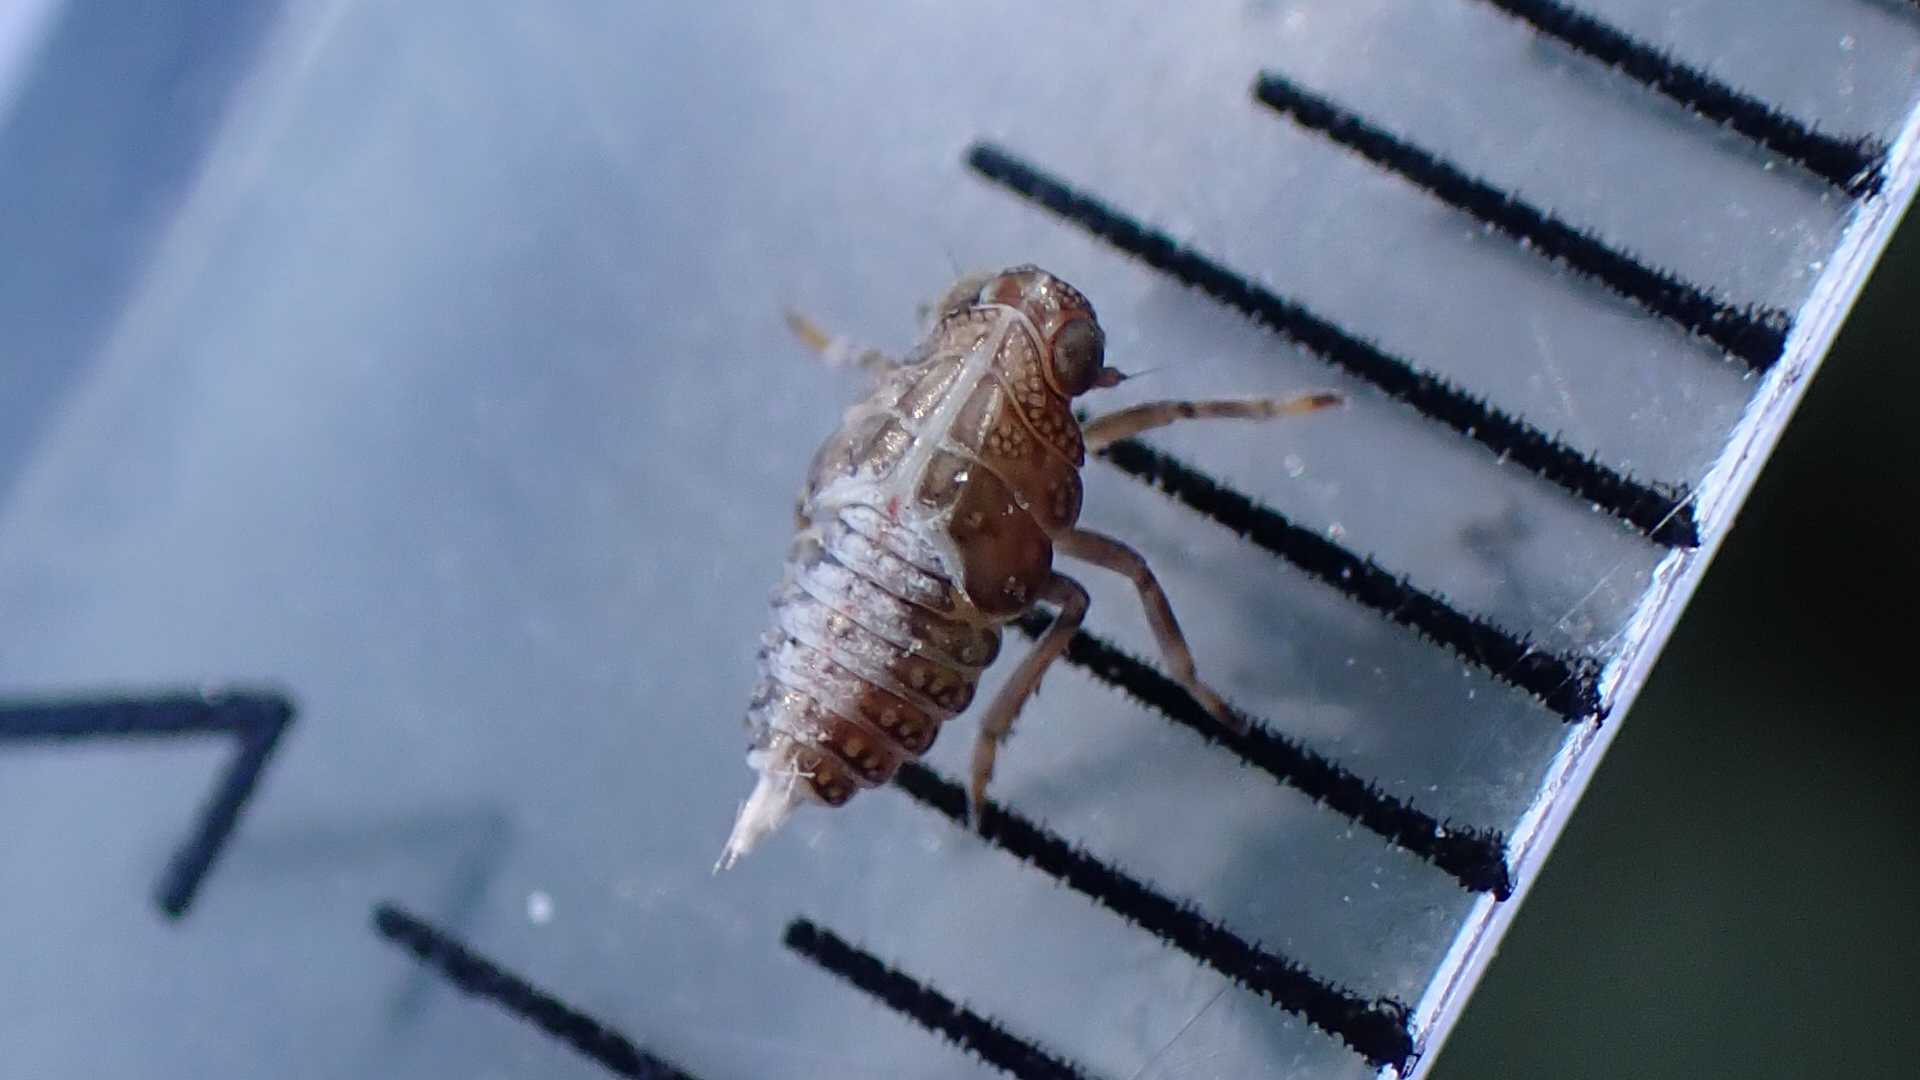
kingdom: Animalia
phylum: Arthropoda
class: Insecta
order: Hemiptera
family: Issidae
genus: Issus
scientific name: Issus coleoptratus
